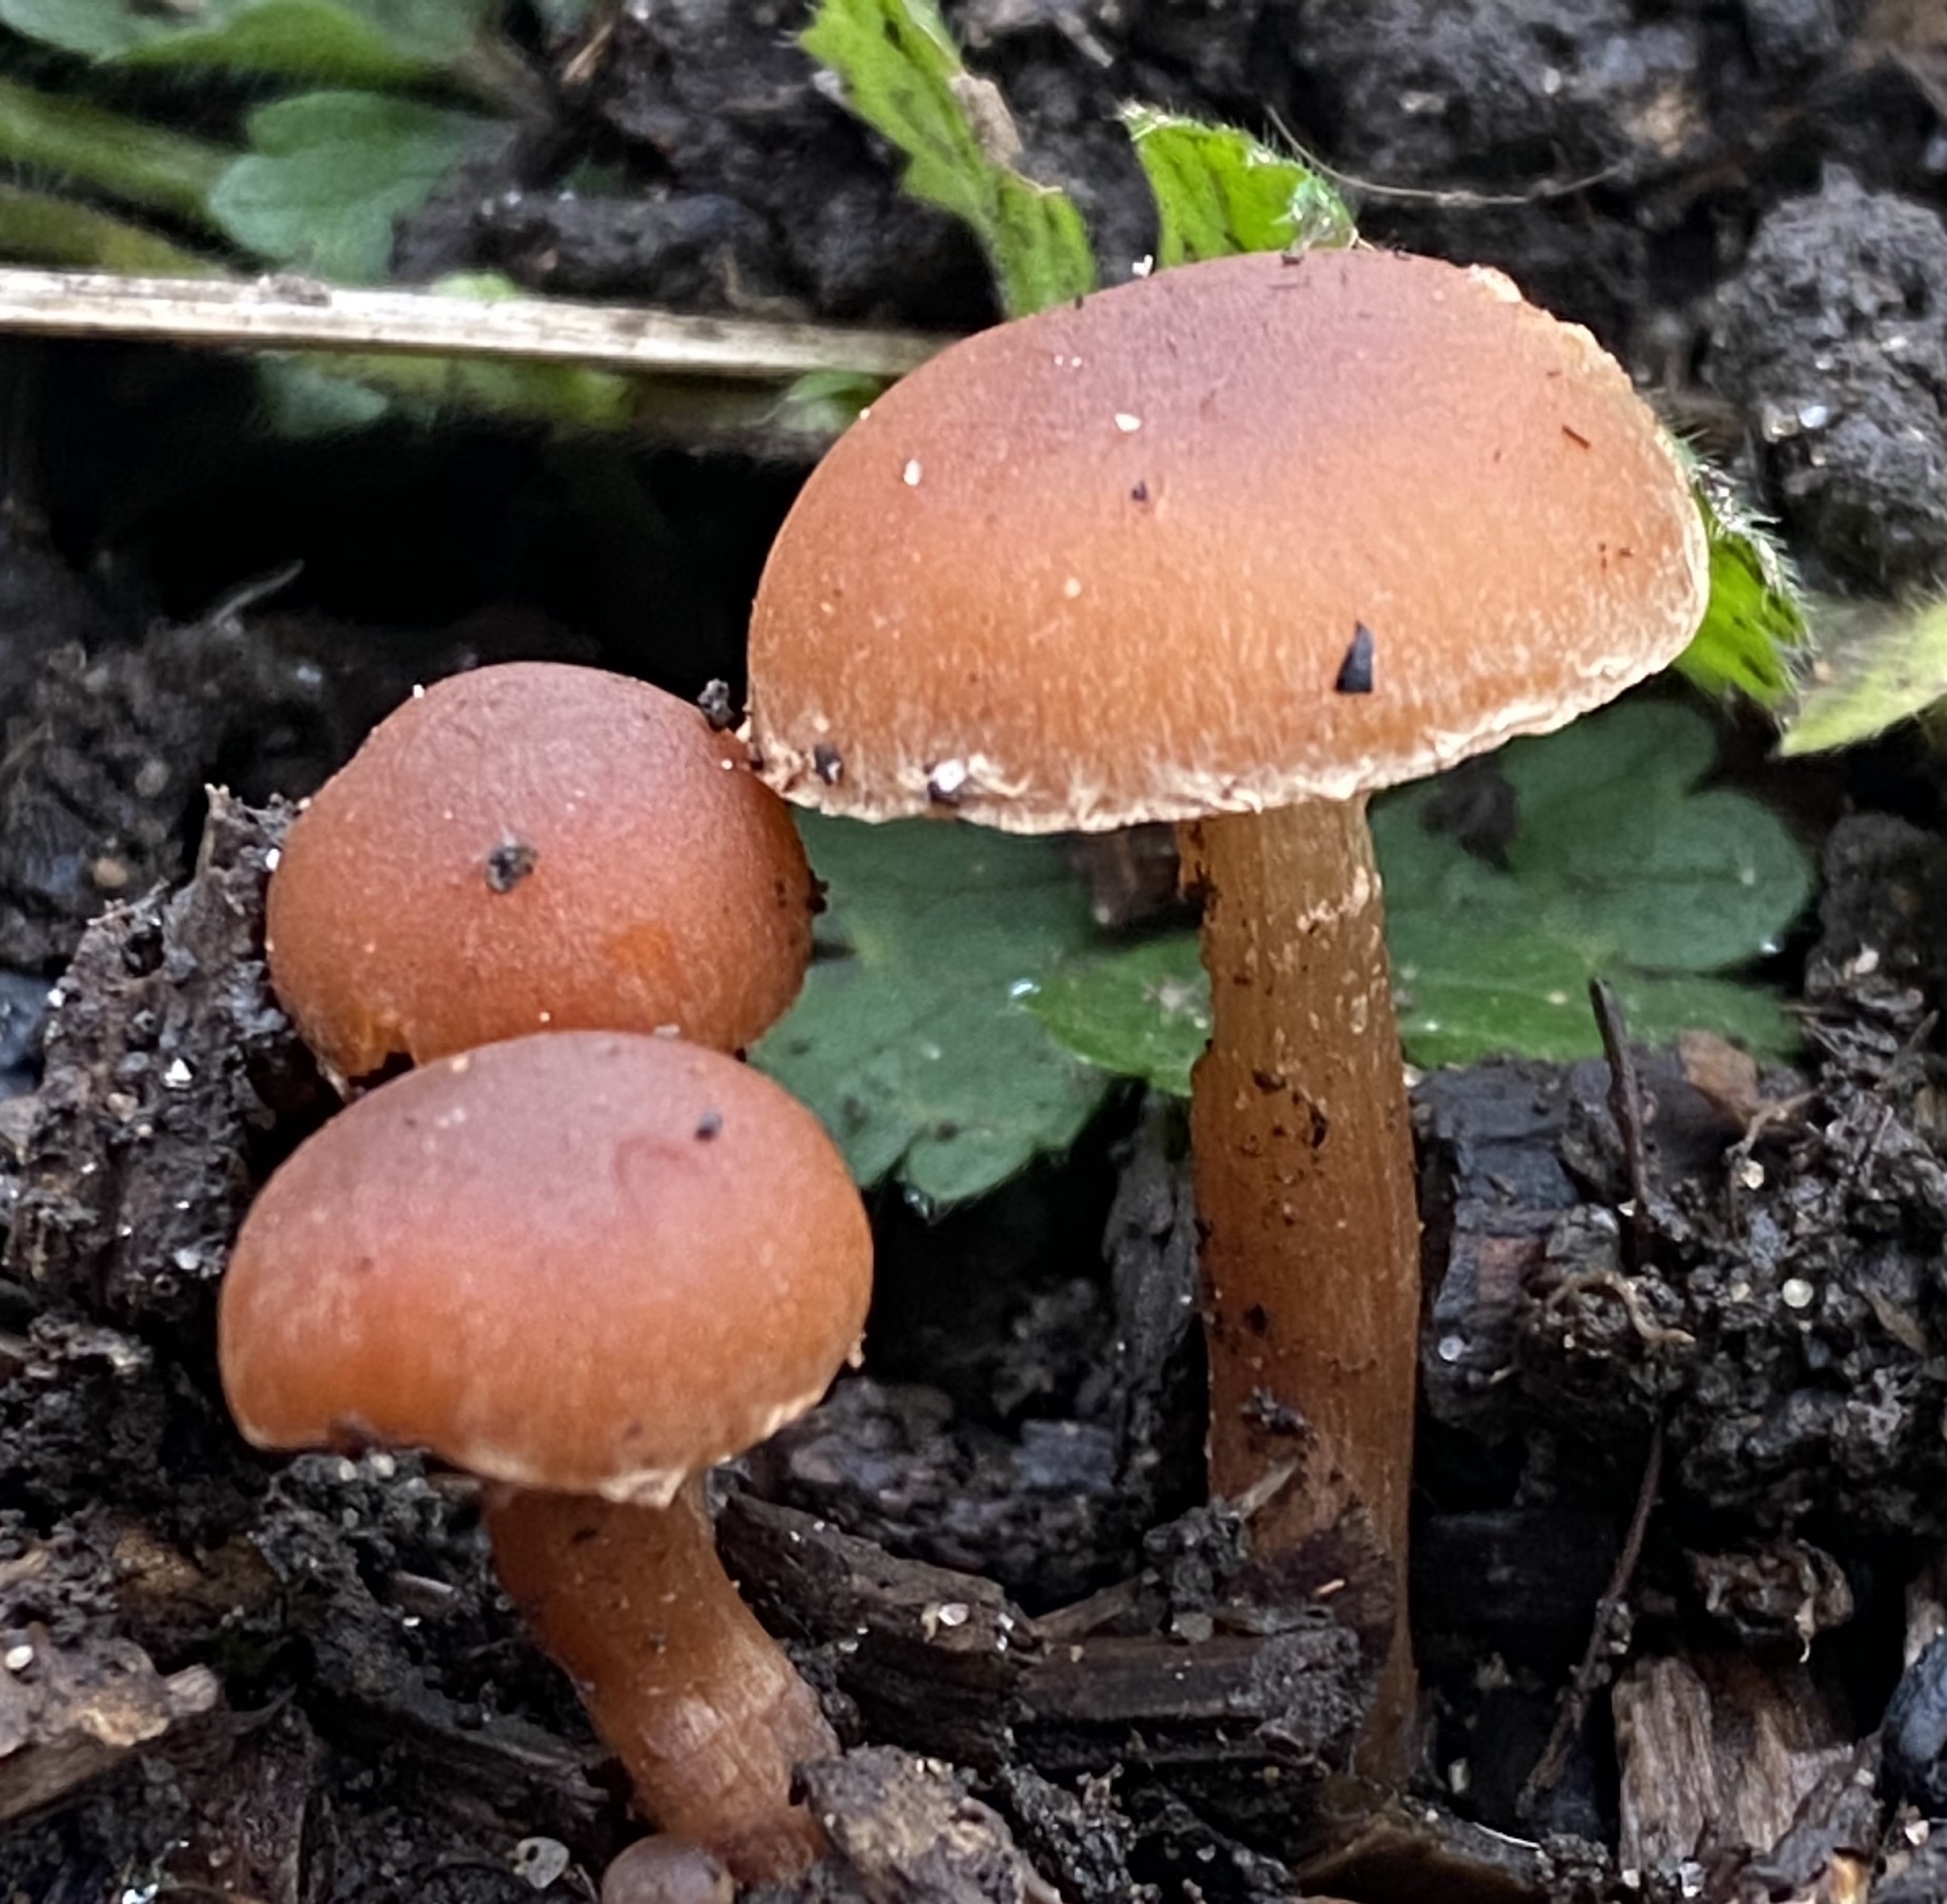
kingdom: Fungi
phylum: Basidiomycota
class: Agaricomycetes
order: Agaricales
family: Tubariaceae
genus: Tubaria
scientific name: Tubaria furfuracea
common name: Scurfy twiglet
